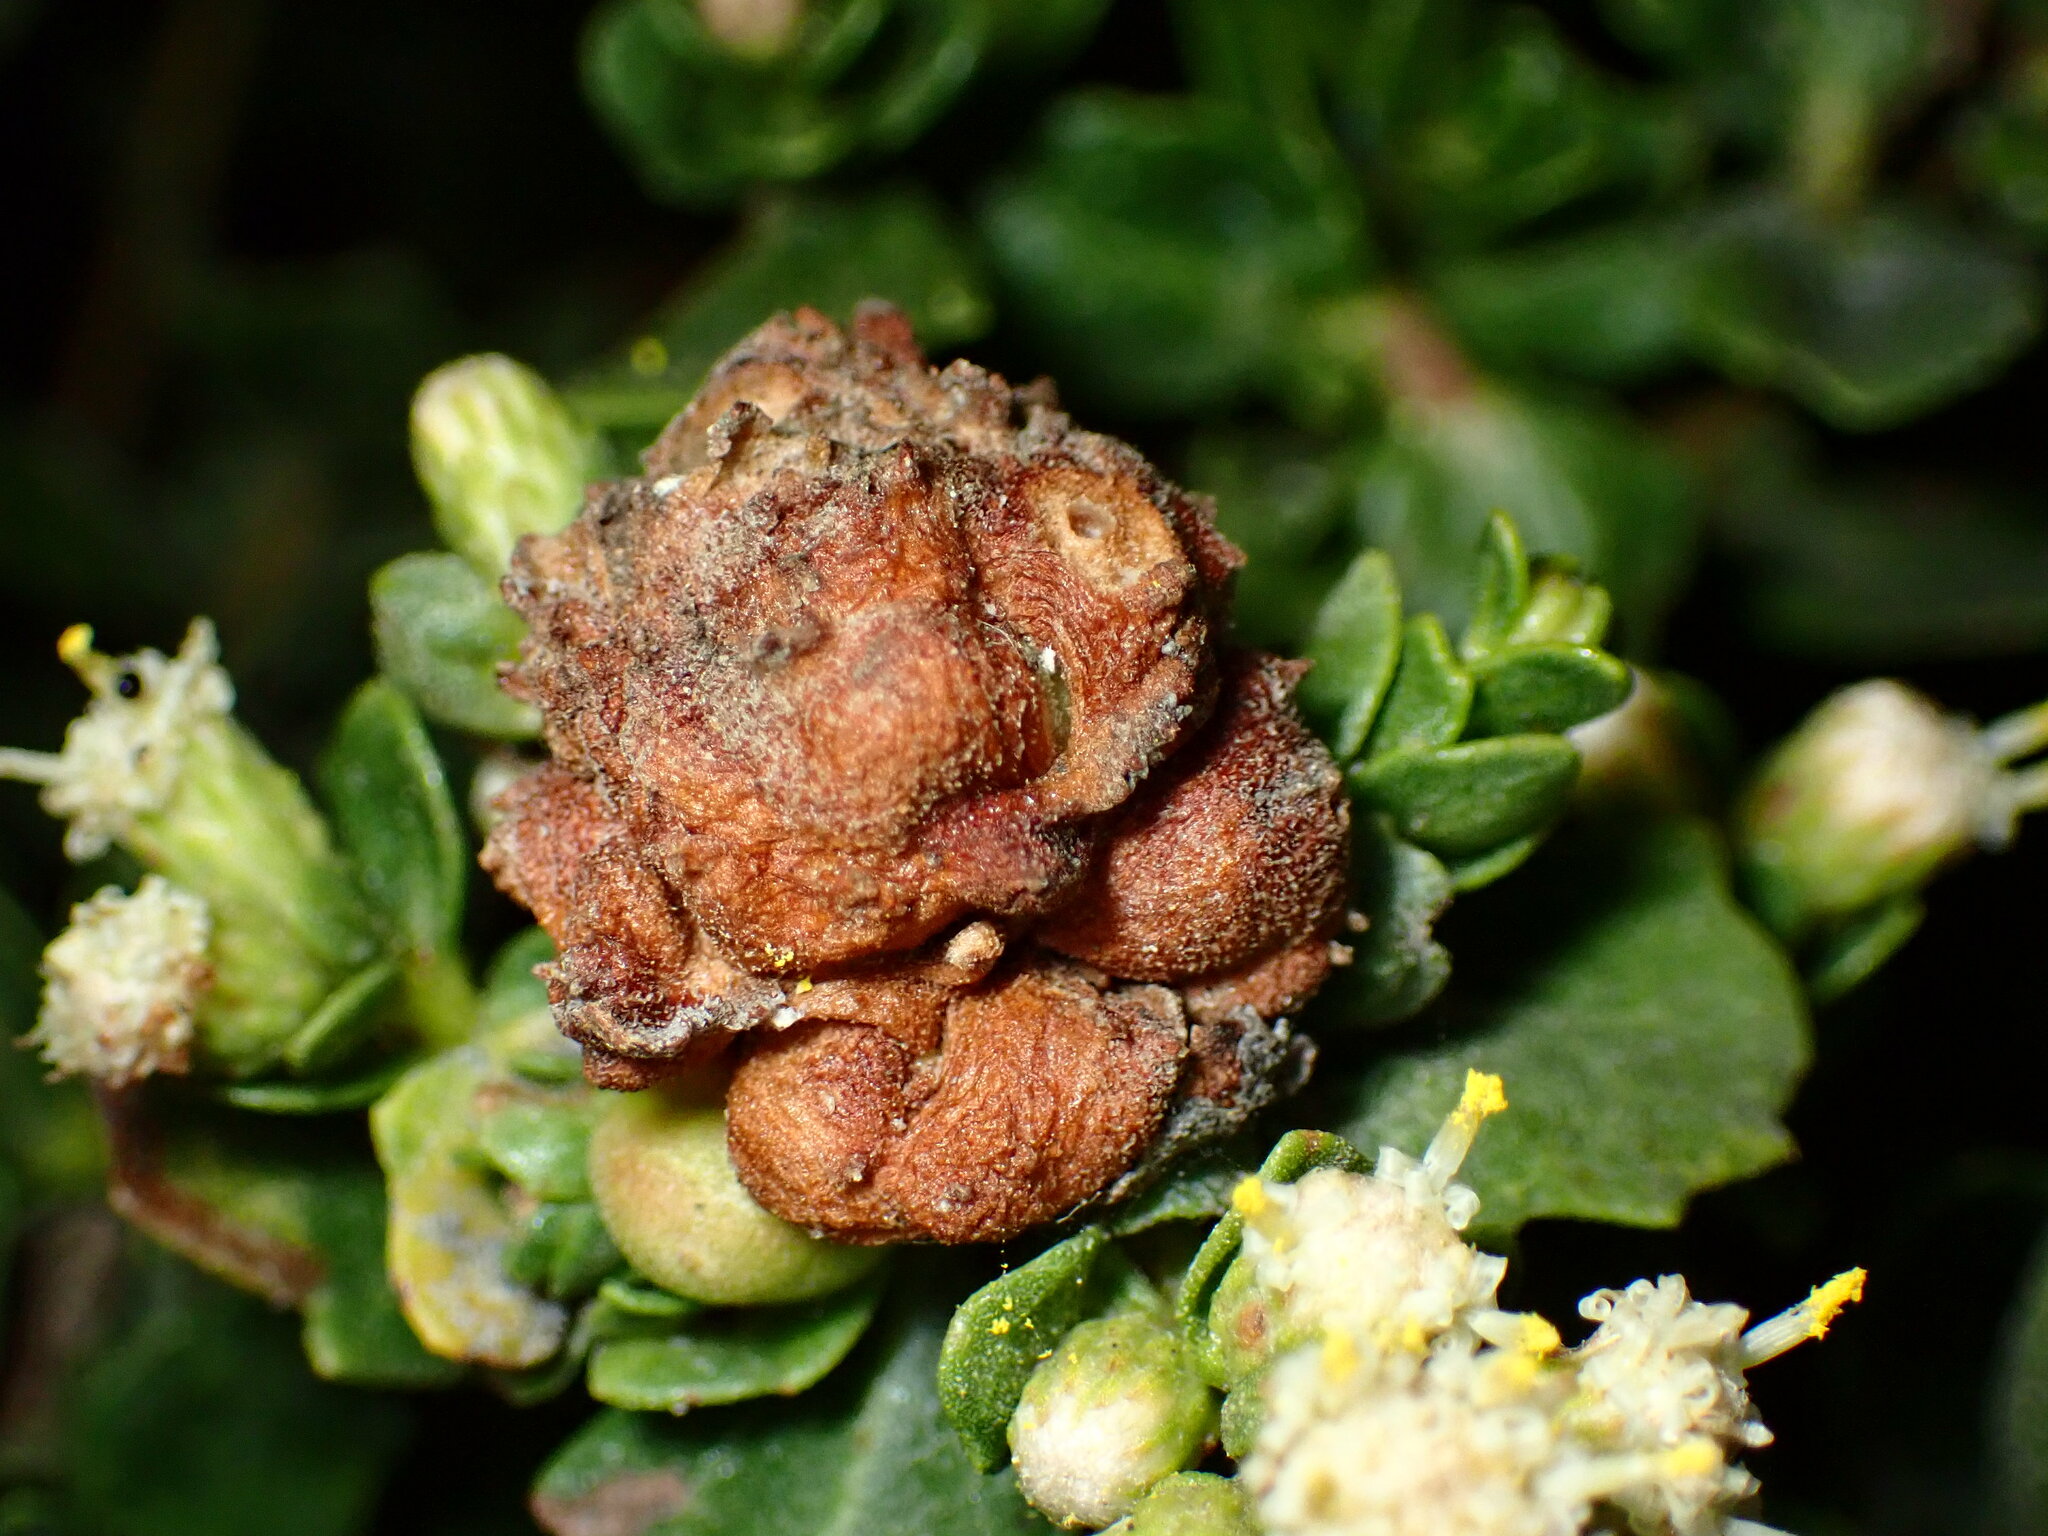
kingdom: Animalia
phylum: Arthropoda
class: Insecta
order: Diptera
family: Cecidomyiidae
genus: Rhopalomyia
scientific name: Rhopalomyia californica
